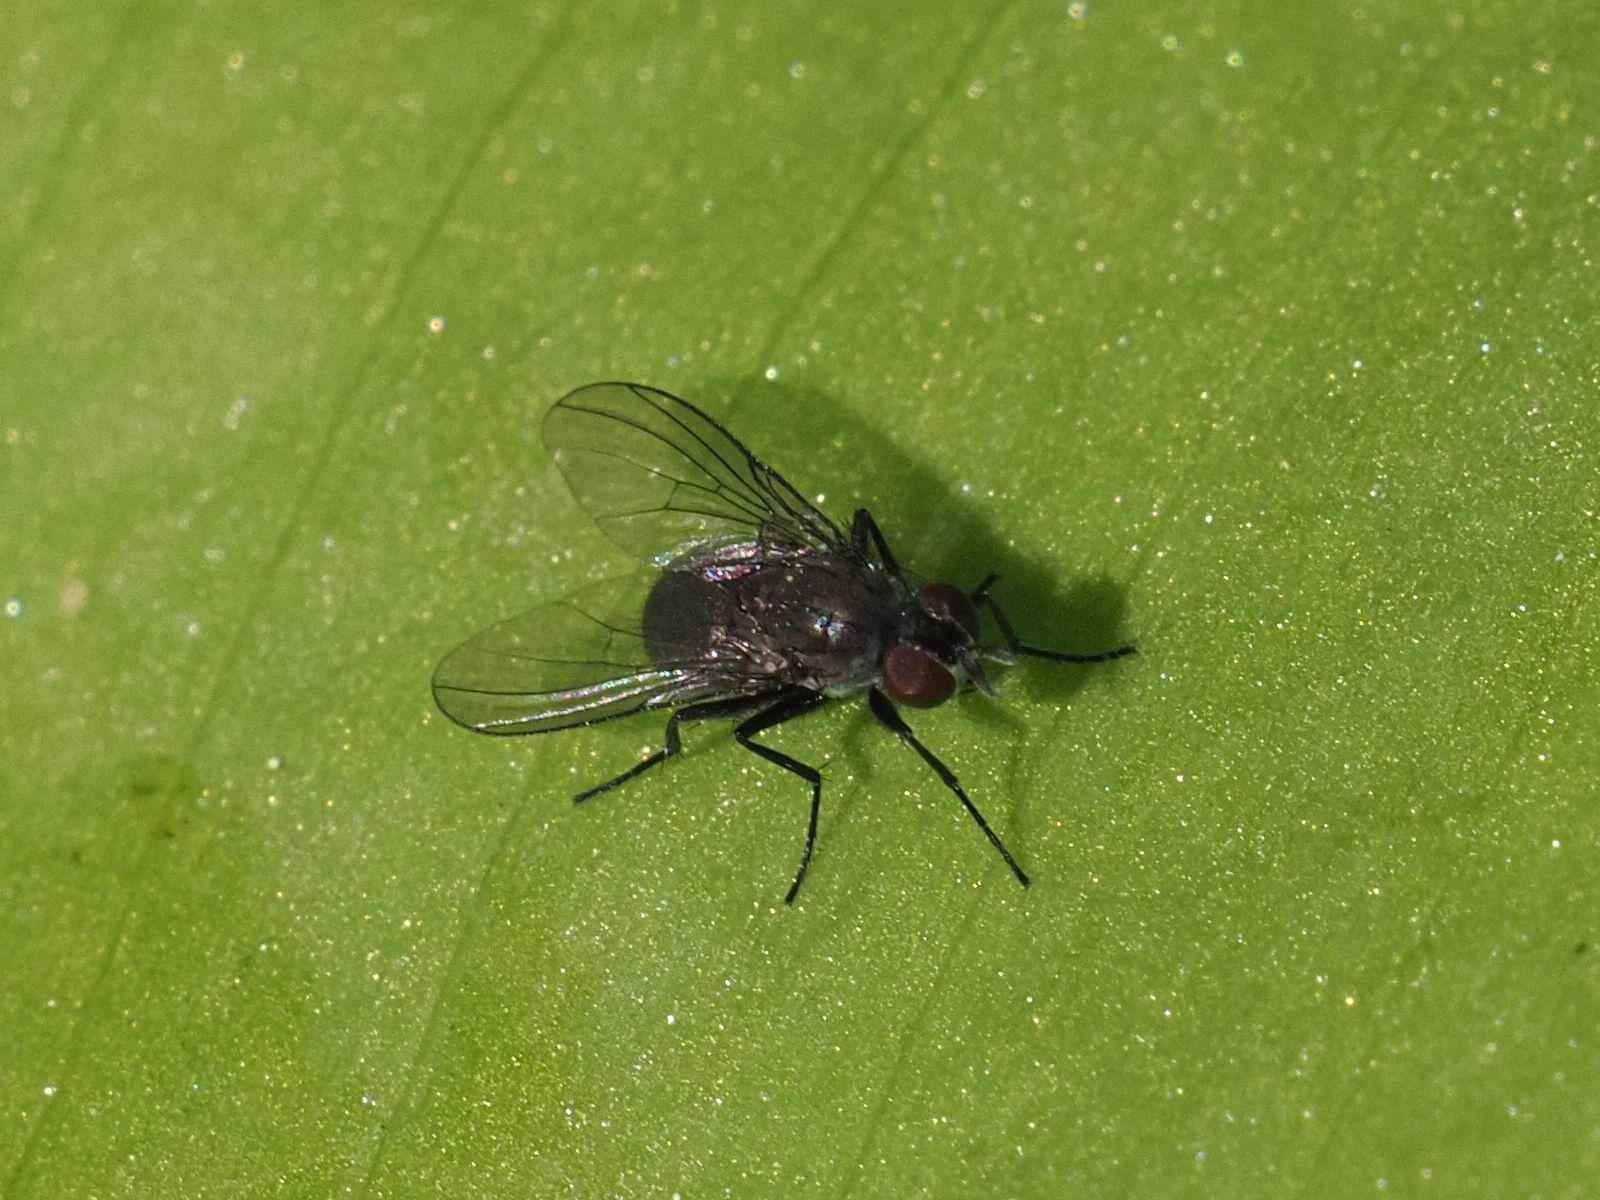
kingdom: Animalia
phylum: Arthropoda
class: Insecta
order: Diptera
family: Muscidae
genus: Coenosia
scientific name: Coenosia agromyzina
